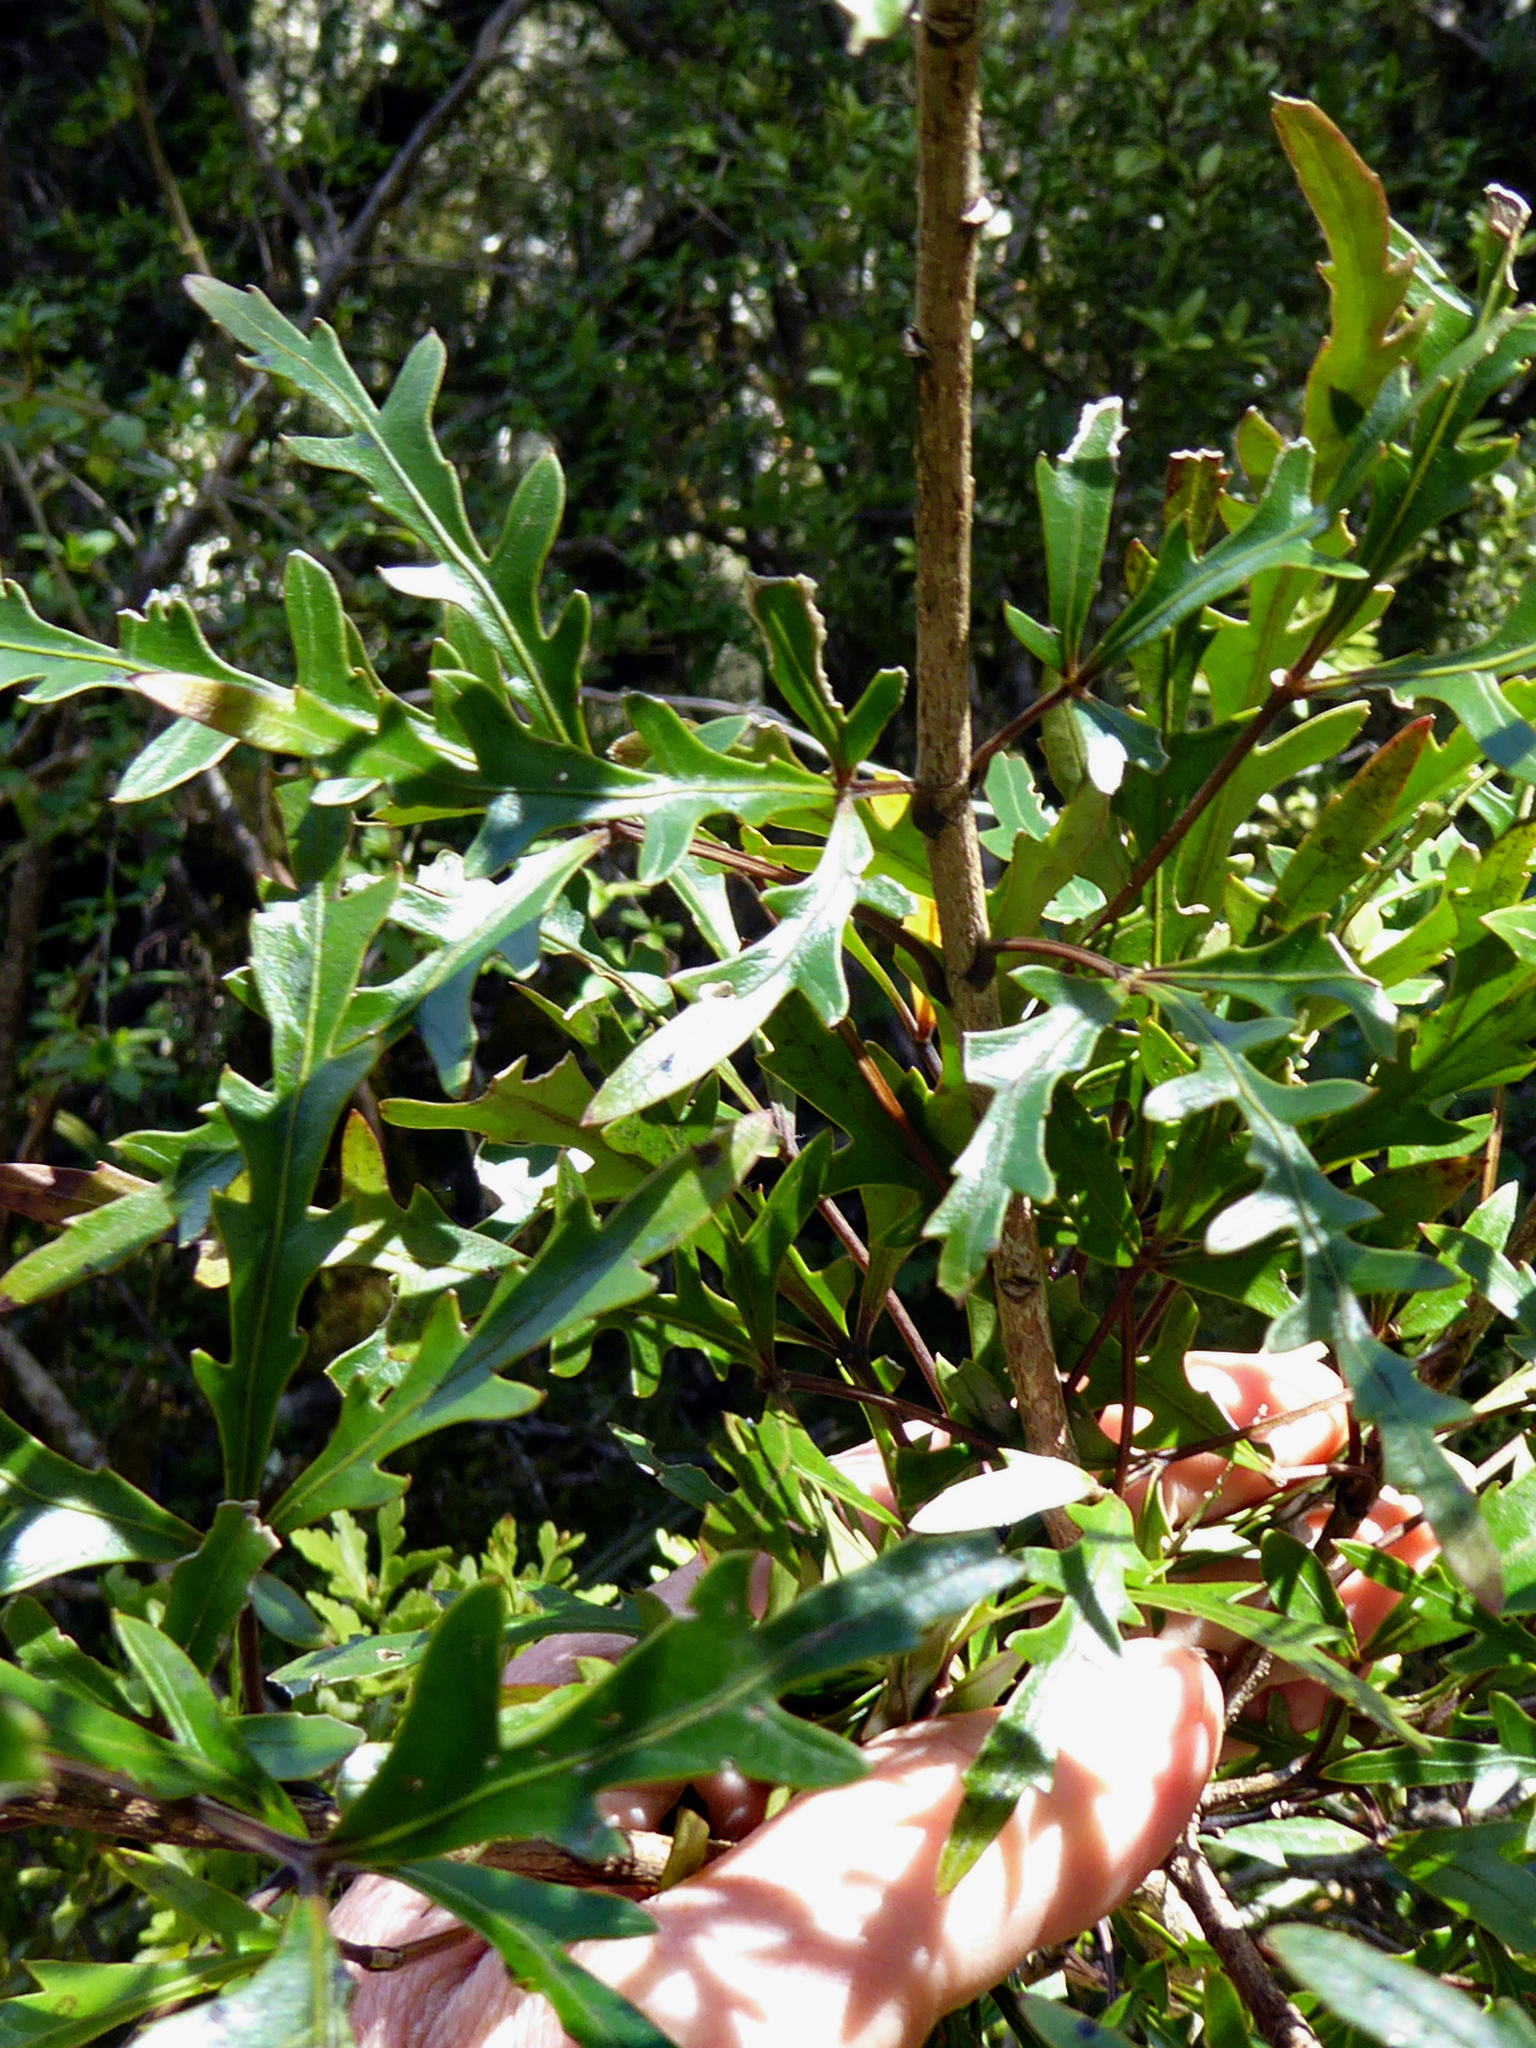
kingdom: Plantae
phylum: Tracheophyta
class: Magnoliopsida
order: Apiales
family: Araliaceae
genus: Raukaua
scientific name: Raukaua simplex
